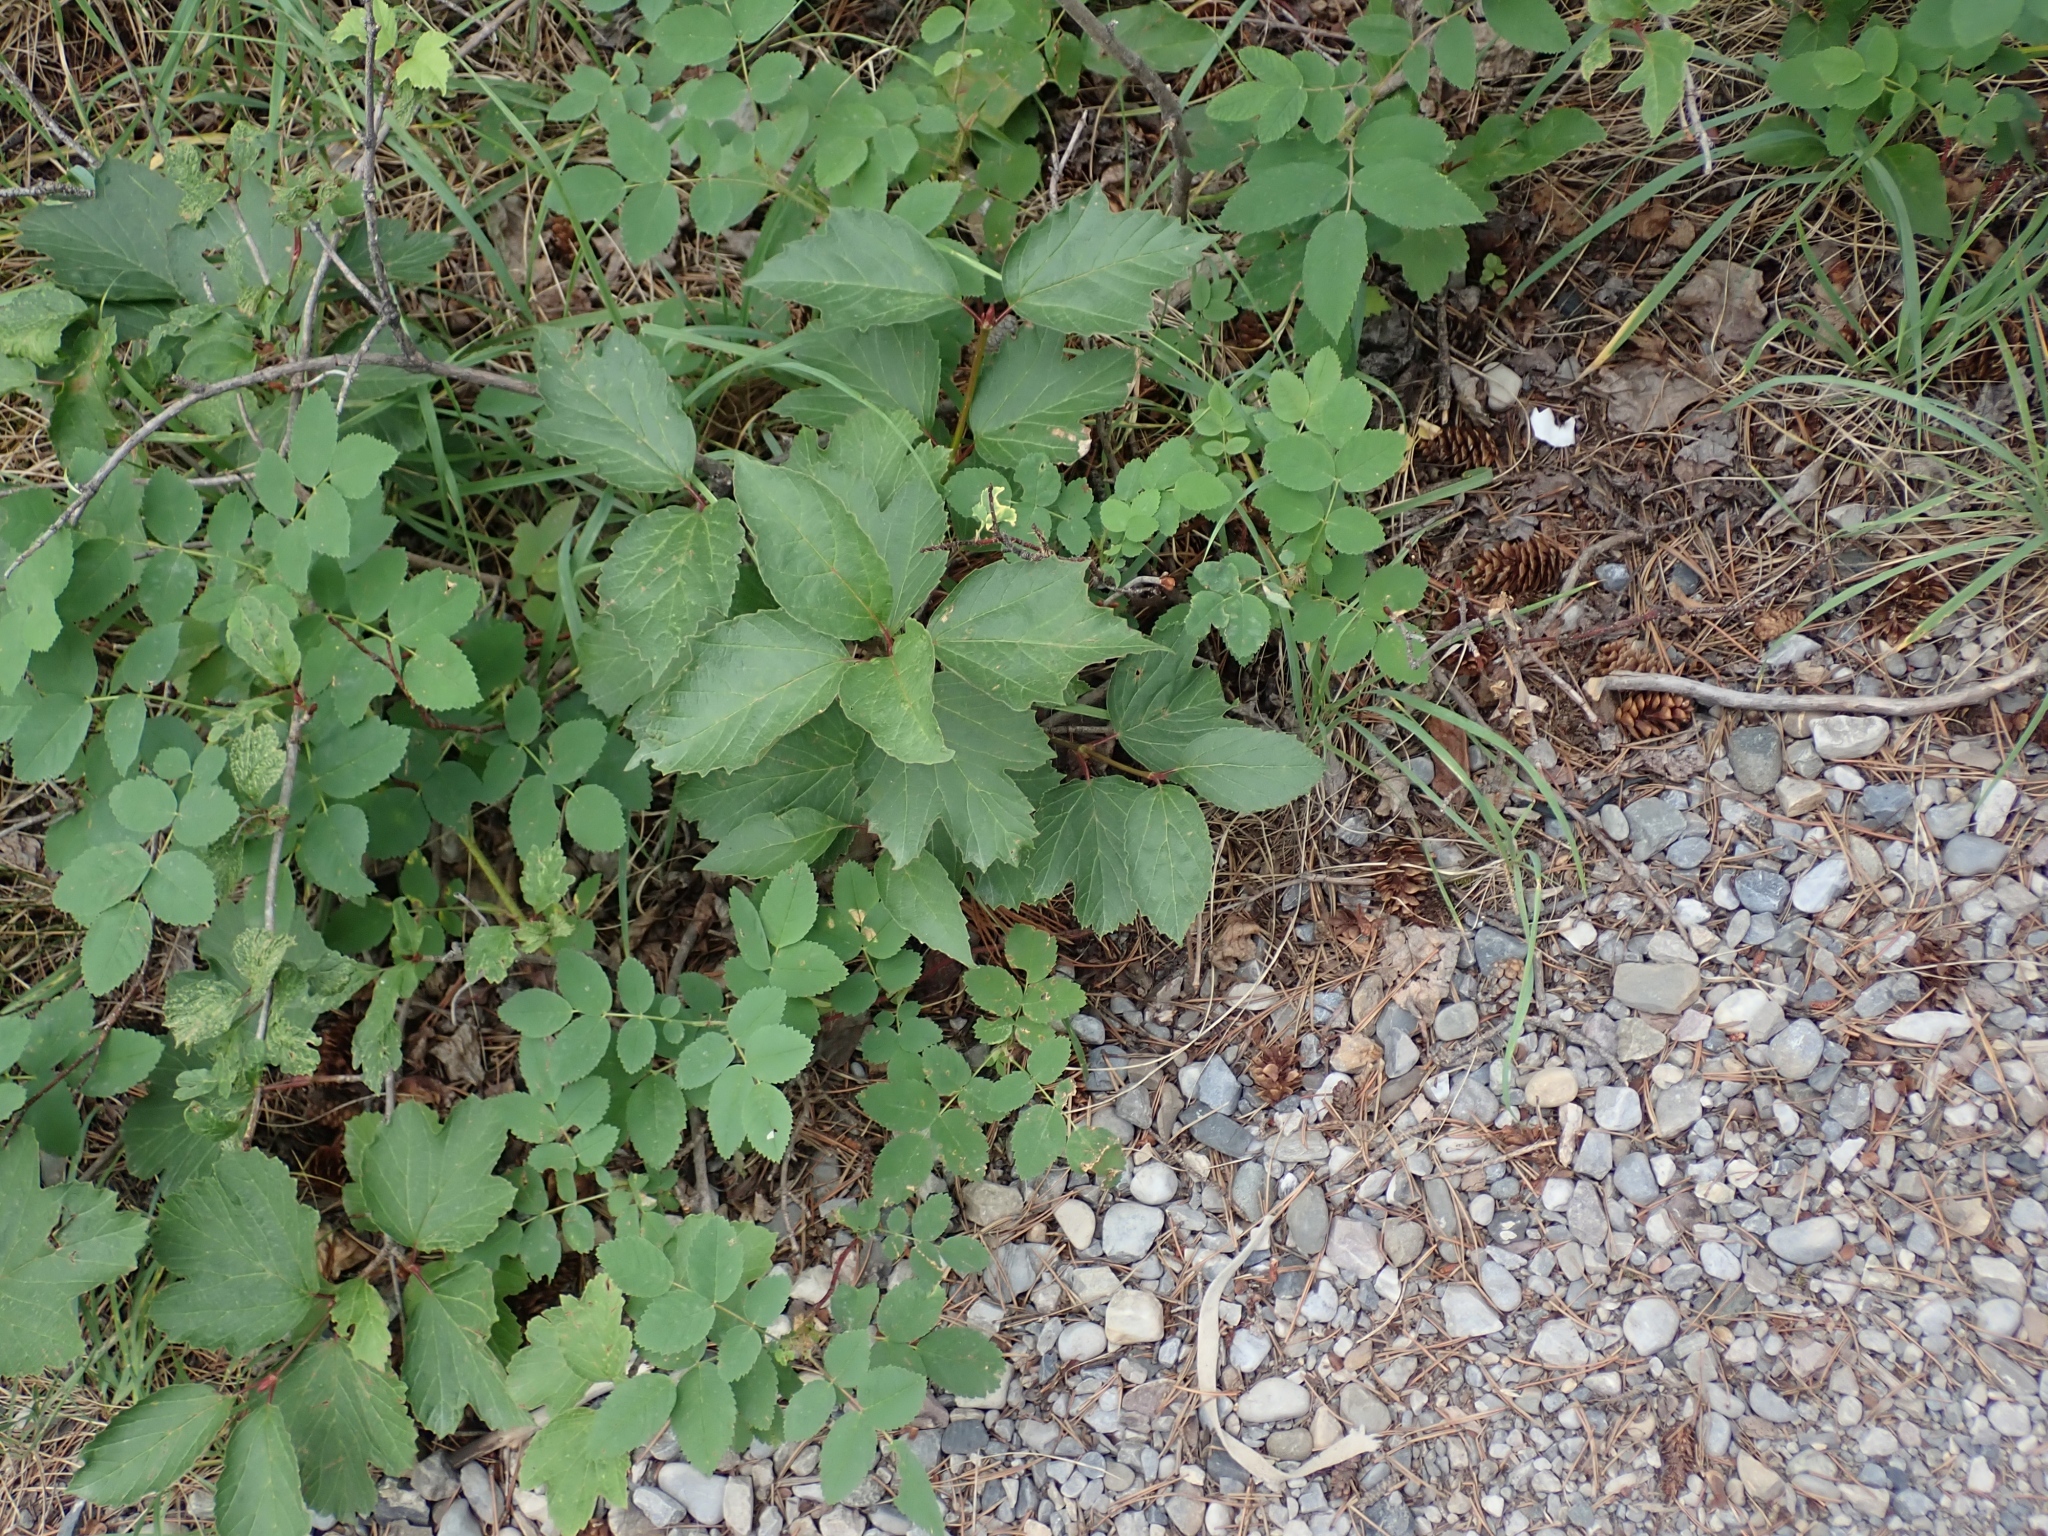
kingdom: Plantae
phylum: Tracheophyta
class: Magnoliopsida
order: Dipsacales
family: Viburnaceae
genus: Viburnum
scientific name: Viburnum edule
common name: Mooseberry
